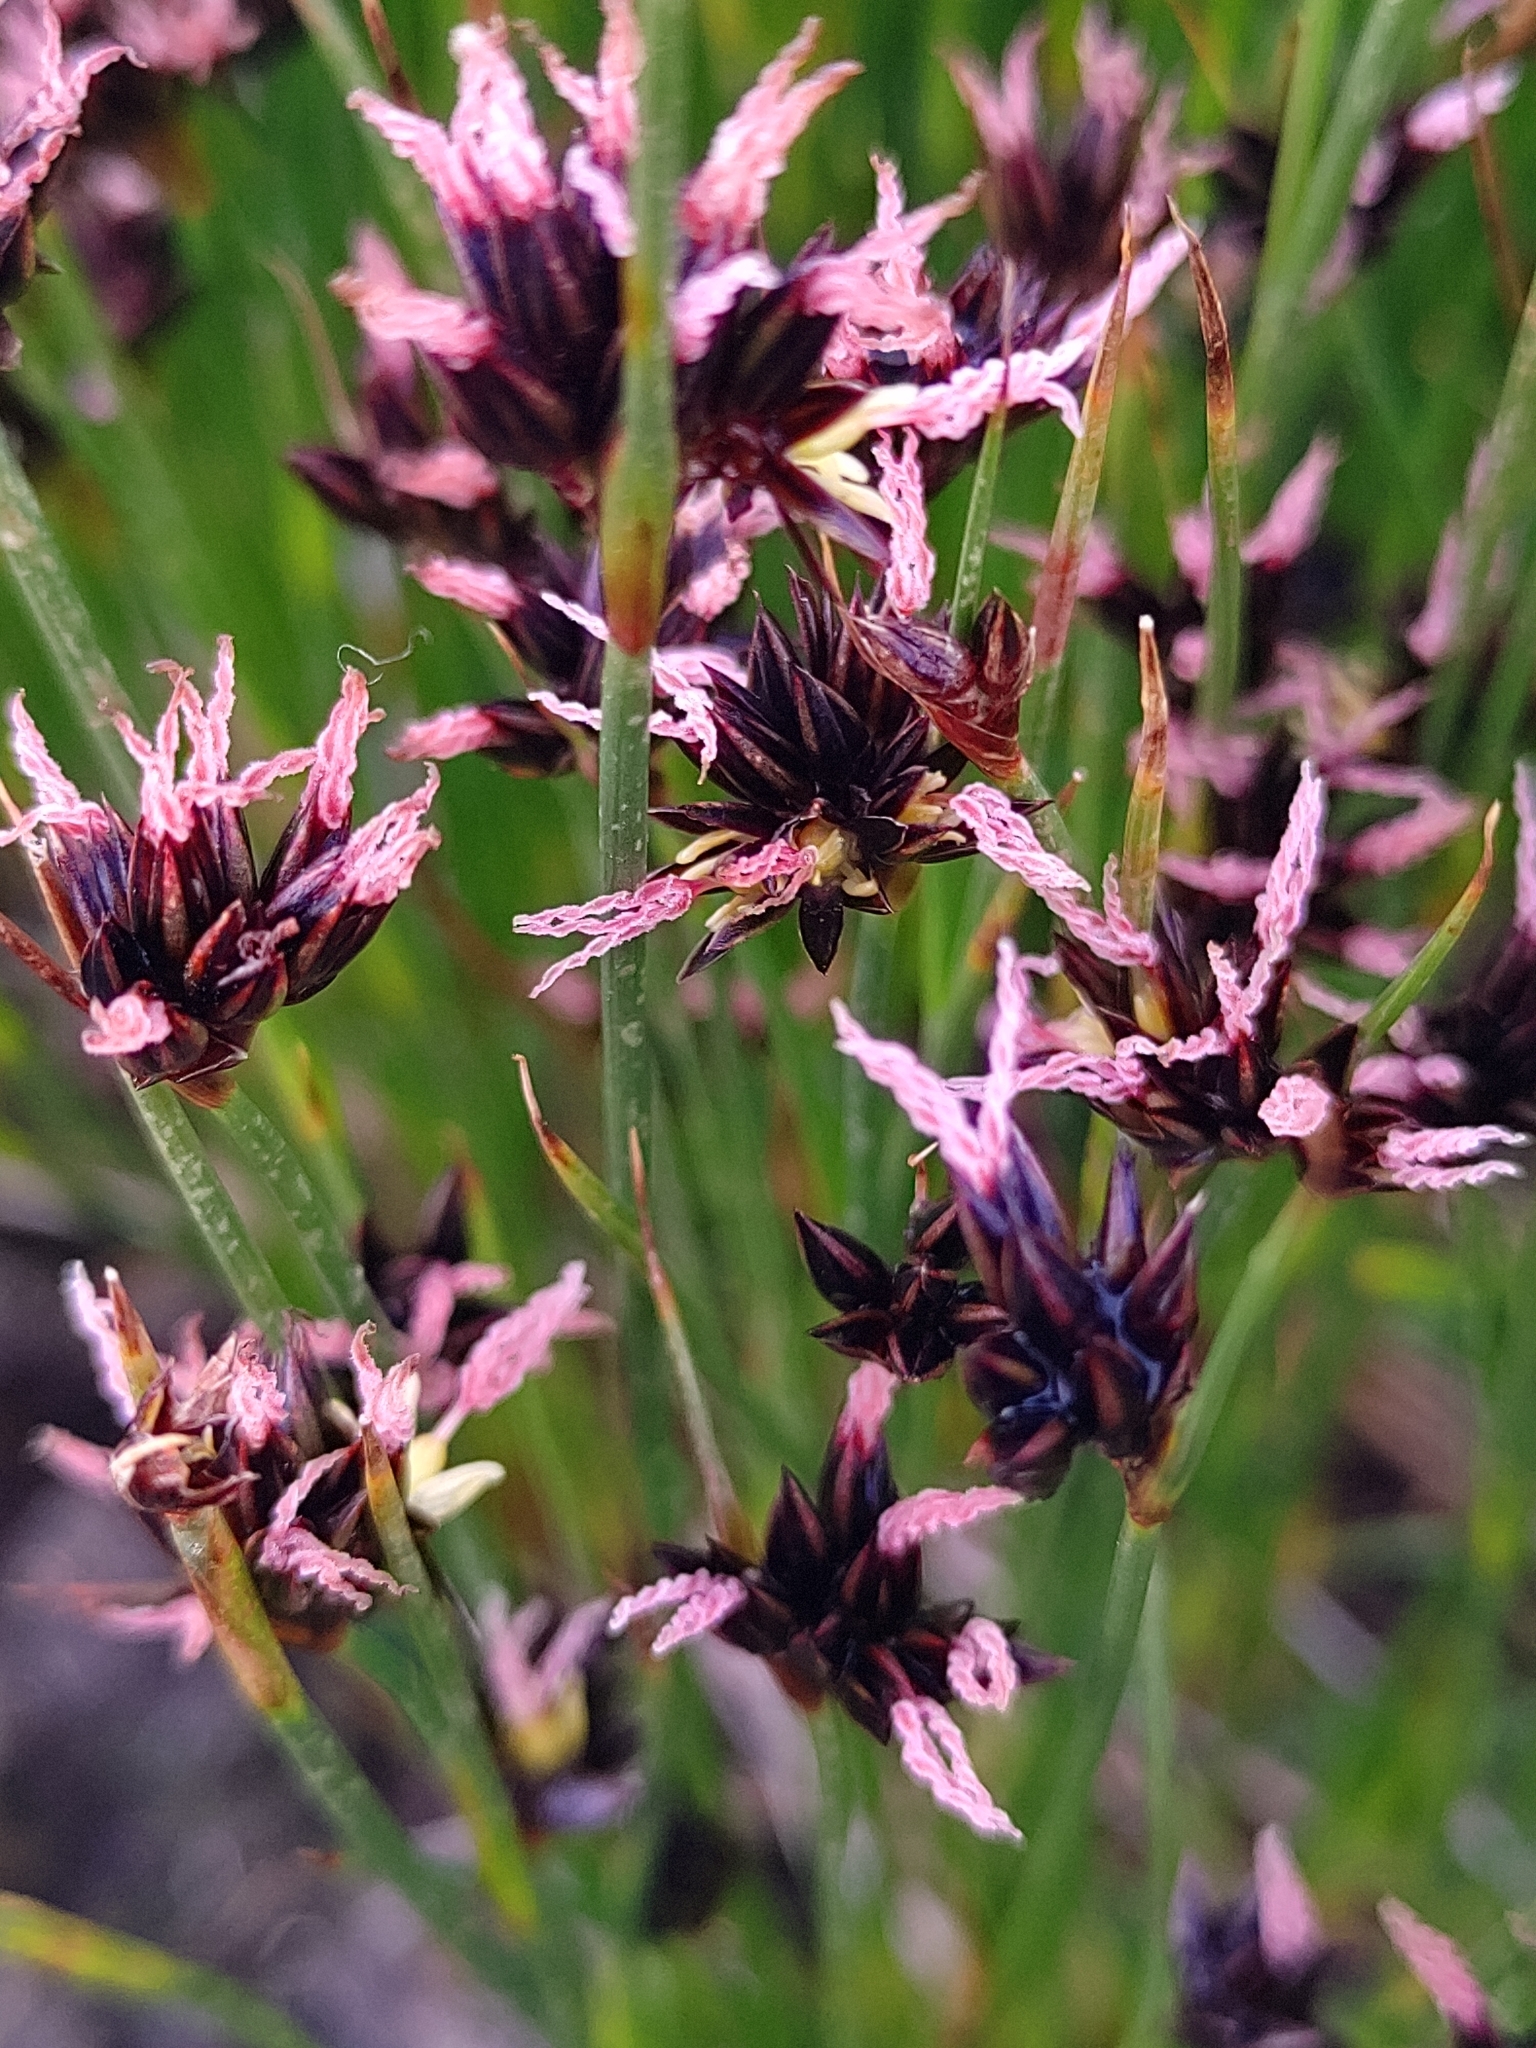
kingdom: Plantae
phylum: Tracheophyta
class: Liliopsida
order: Poales
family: Juncaceae
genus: Juncus
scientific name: Juncus jacquinii
